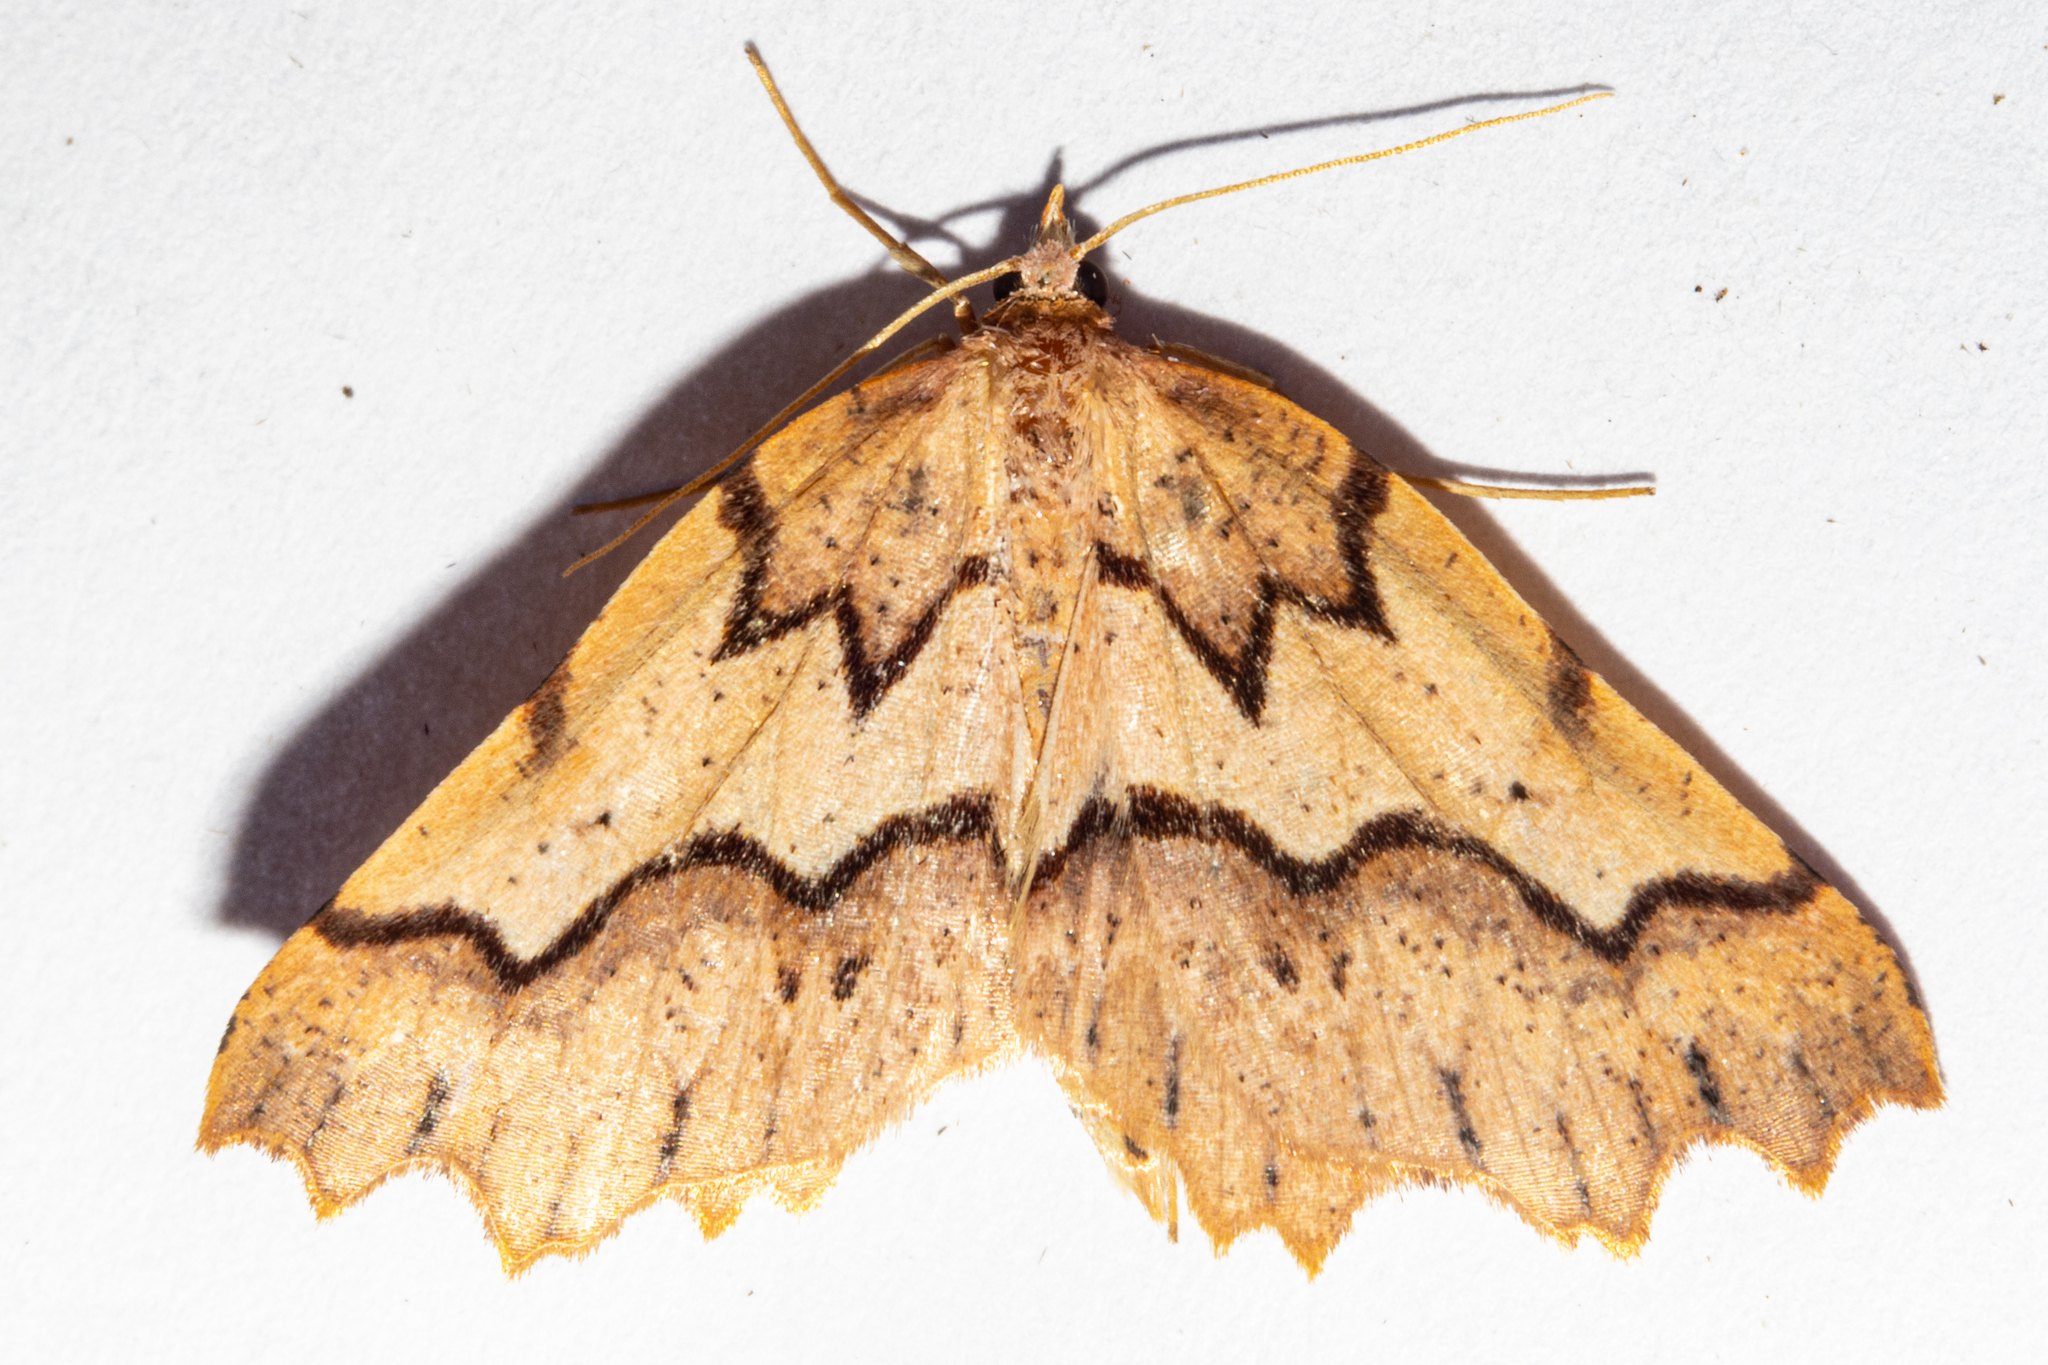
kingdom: Animalia
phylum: Arthropoda
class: Insecta
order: Lepidoptera
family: Geometridae
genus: Ischalis
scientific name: Ischalis fortinata
